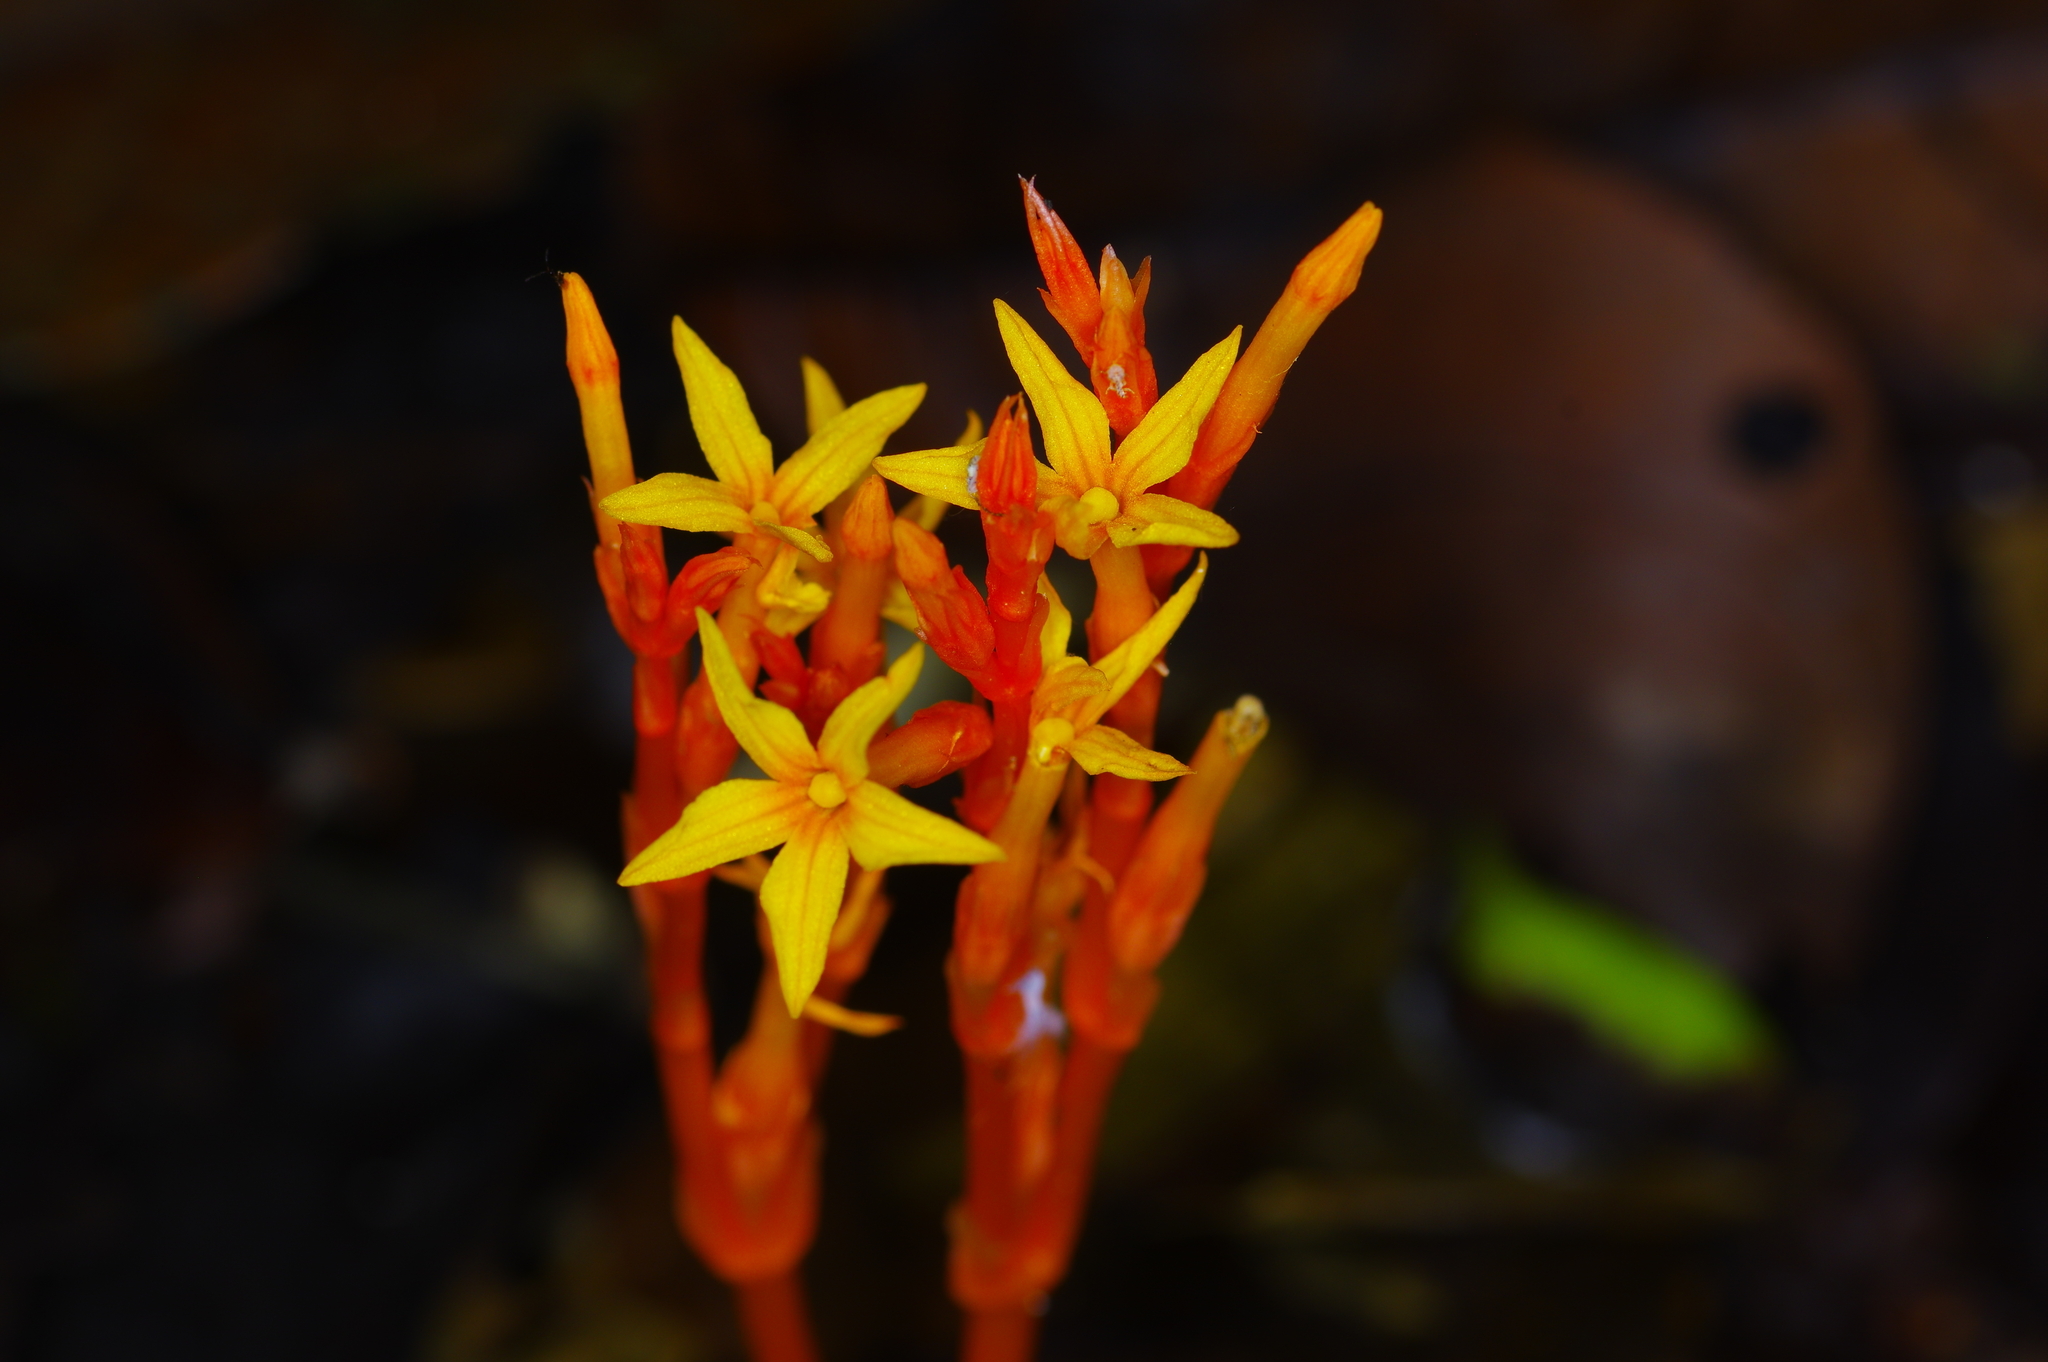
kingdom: Plantae
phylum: Tracheophyta
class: Magnoliopsida
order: Gentianales
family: Gentianaceae
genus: Voyria
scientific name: Voyria aurantiaca
